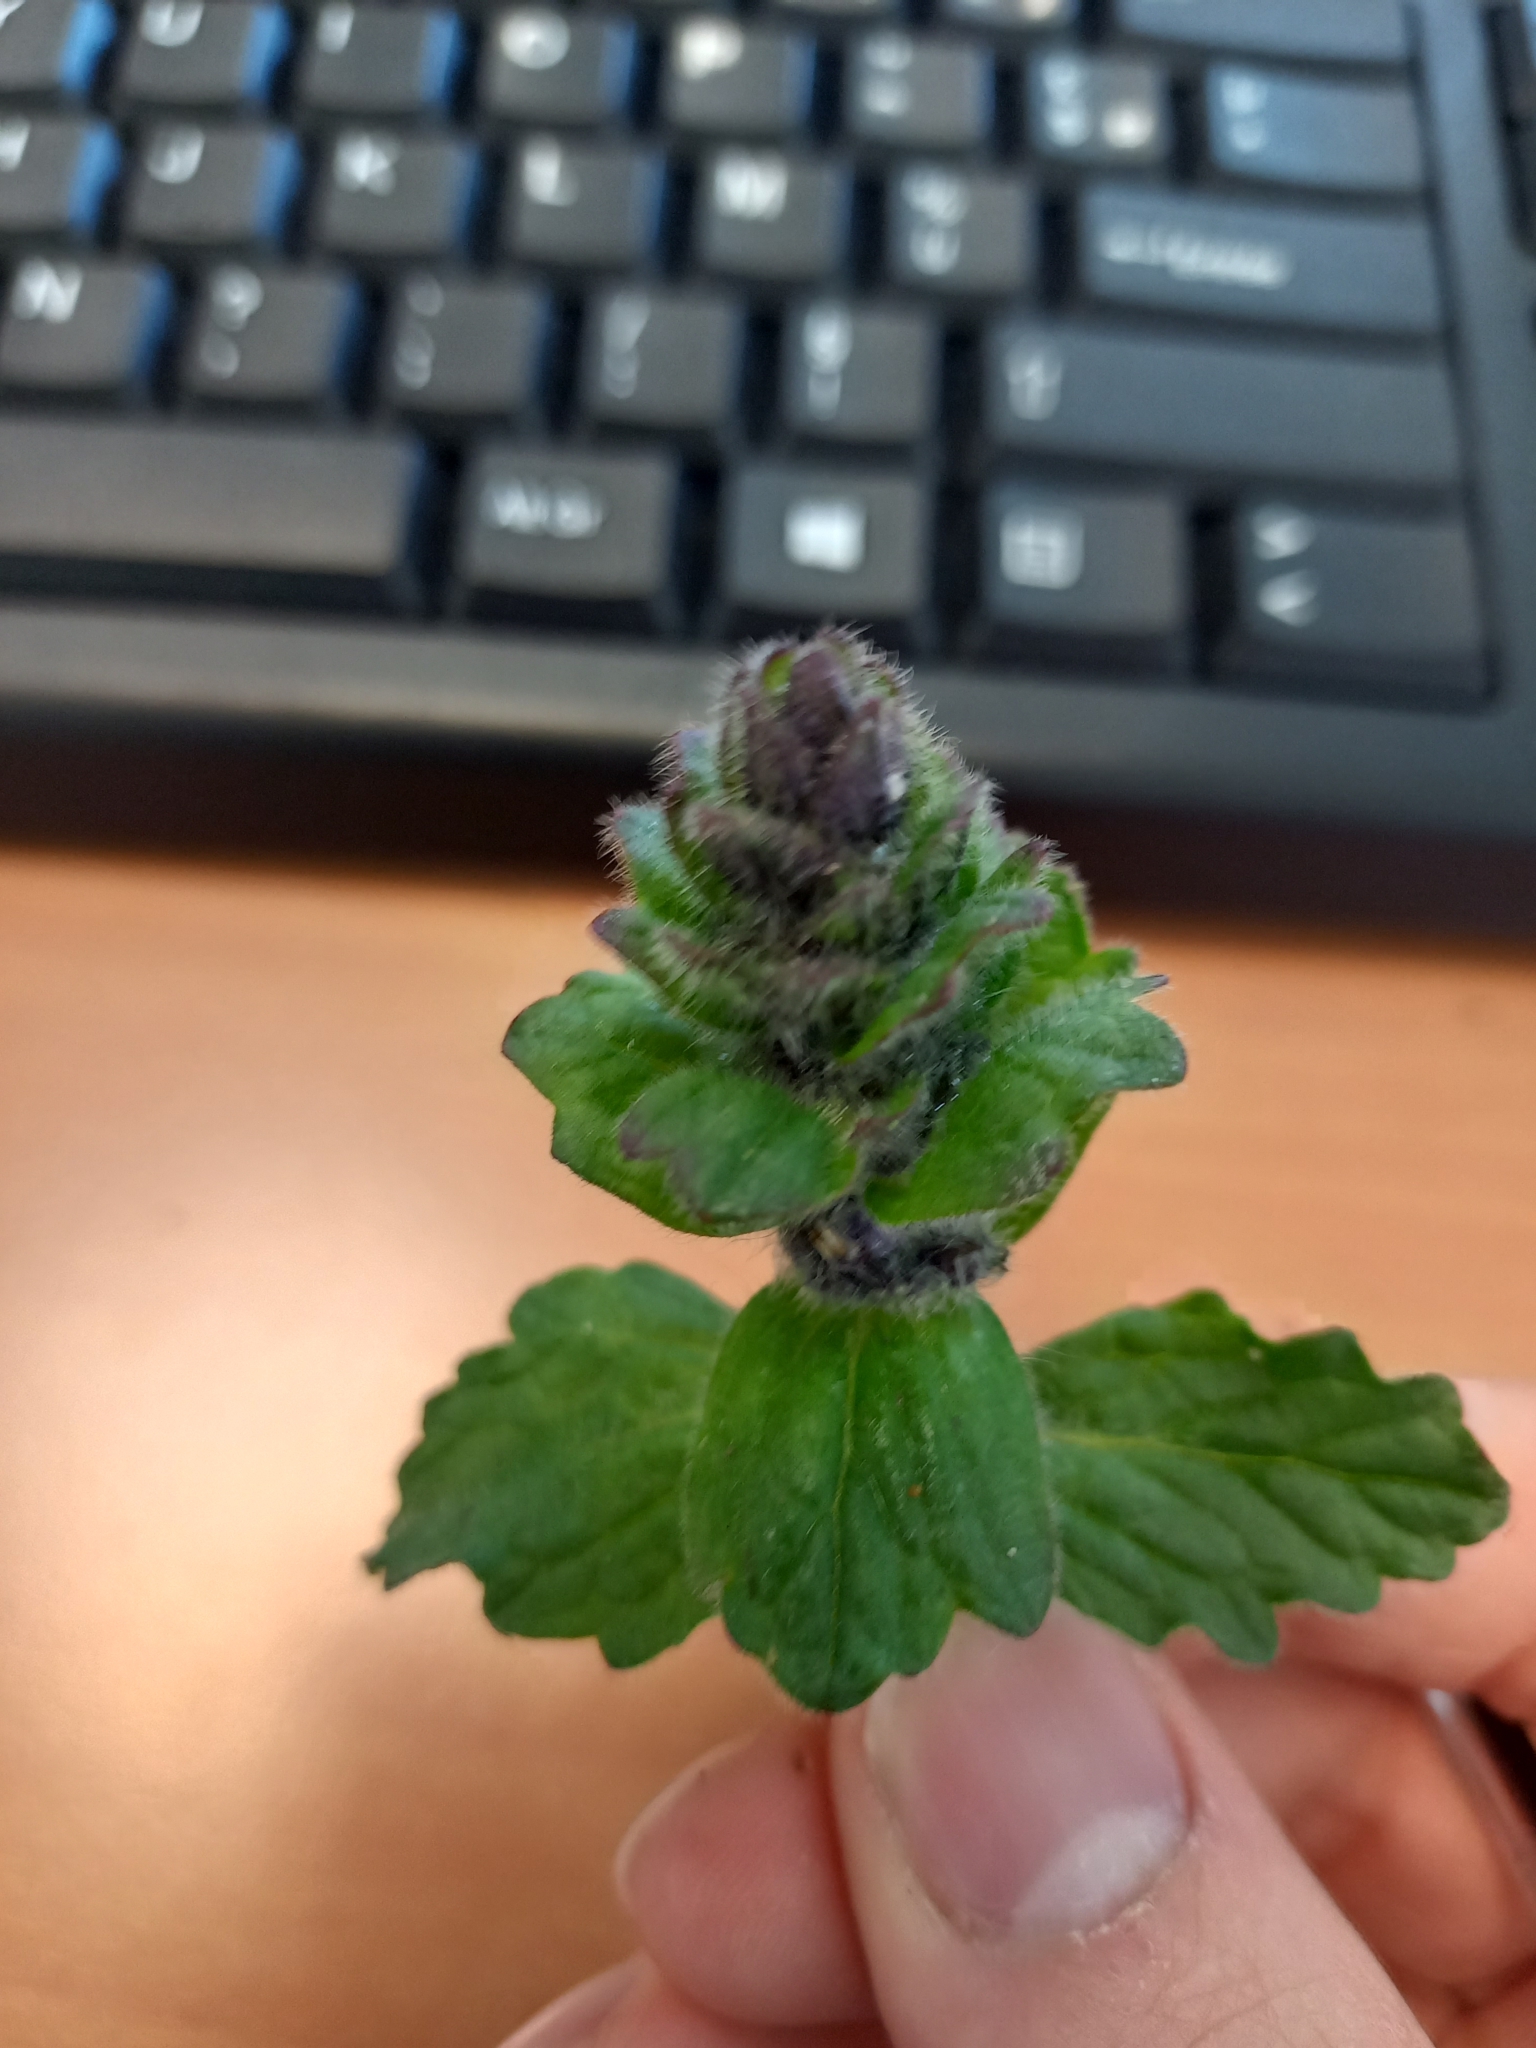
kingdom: Plantae
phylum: Tracheophyta
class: Magnoliopsida
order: Lamiales
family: Lamiaceae
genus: Ajuga
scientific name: Ajuga genevensis
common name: Blue bugle
